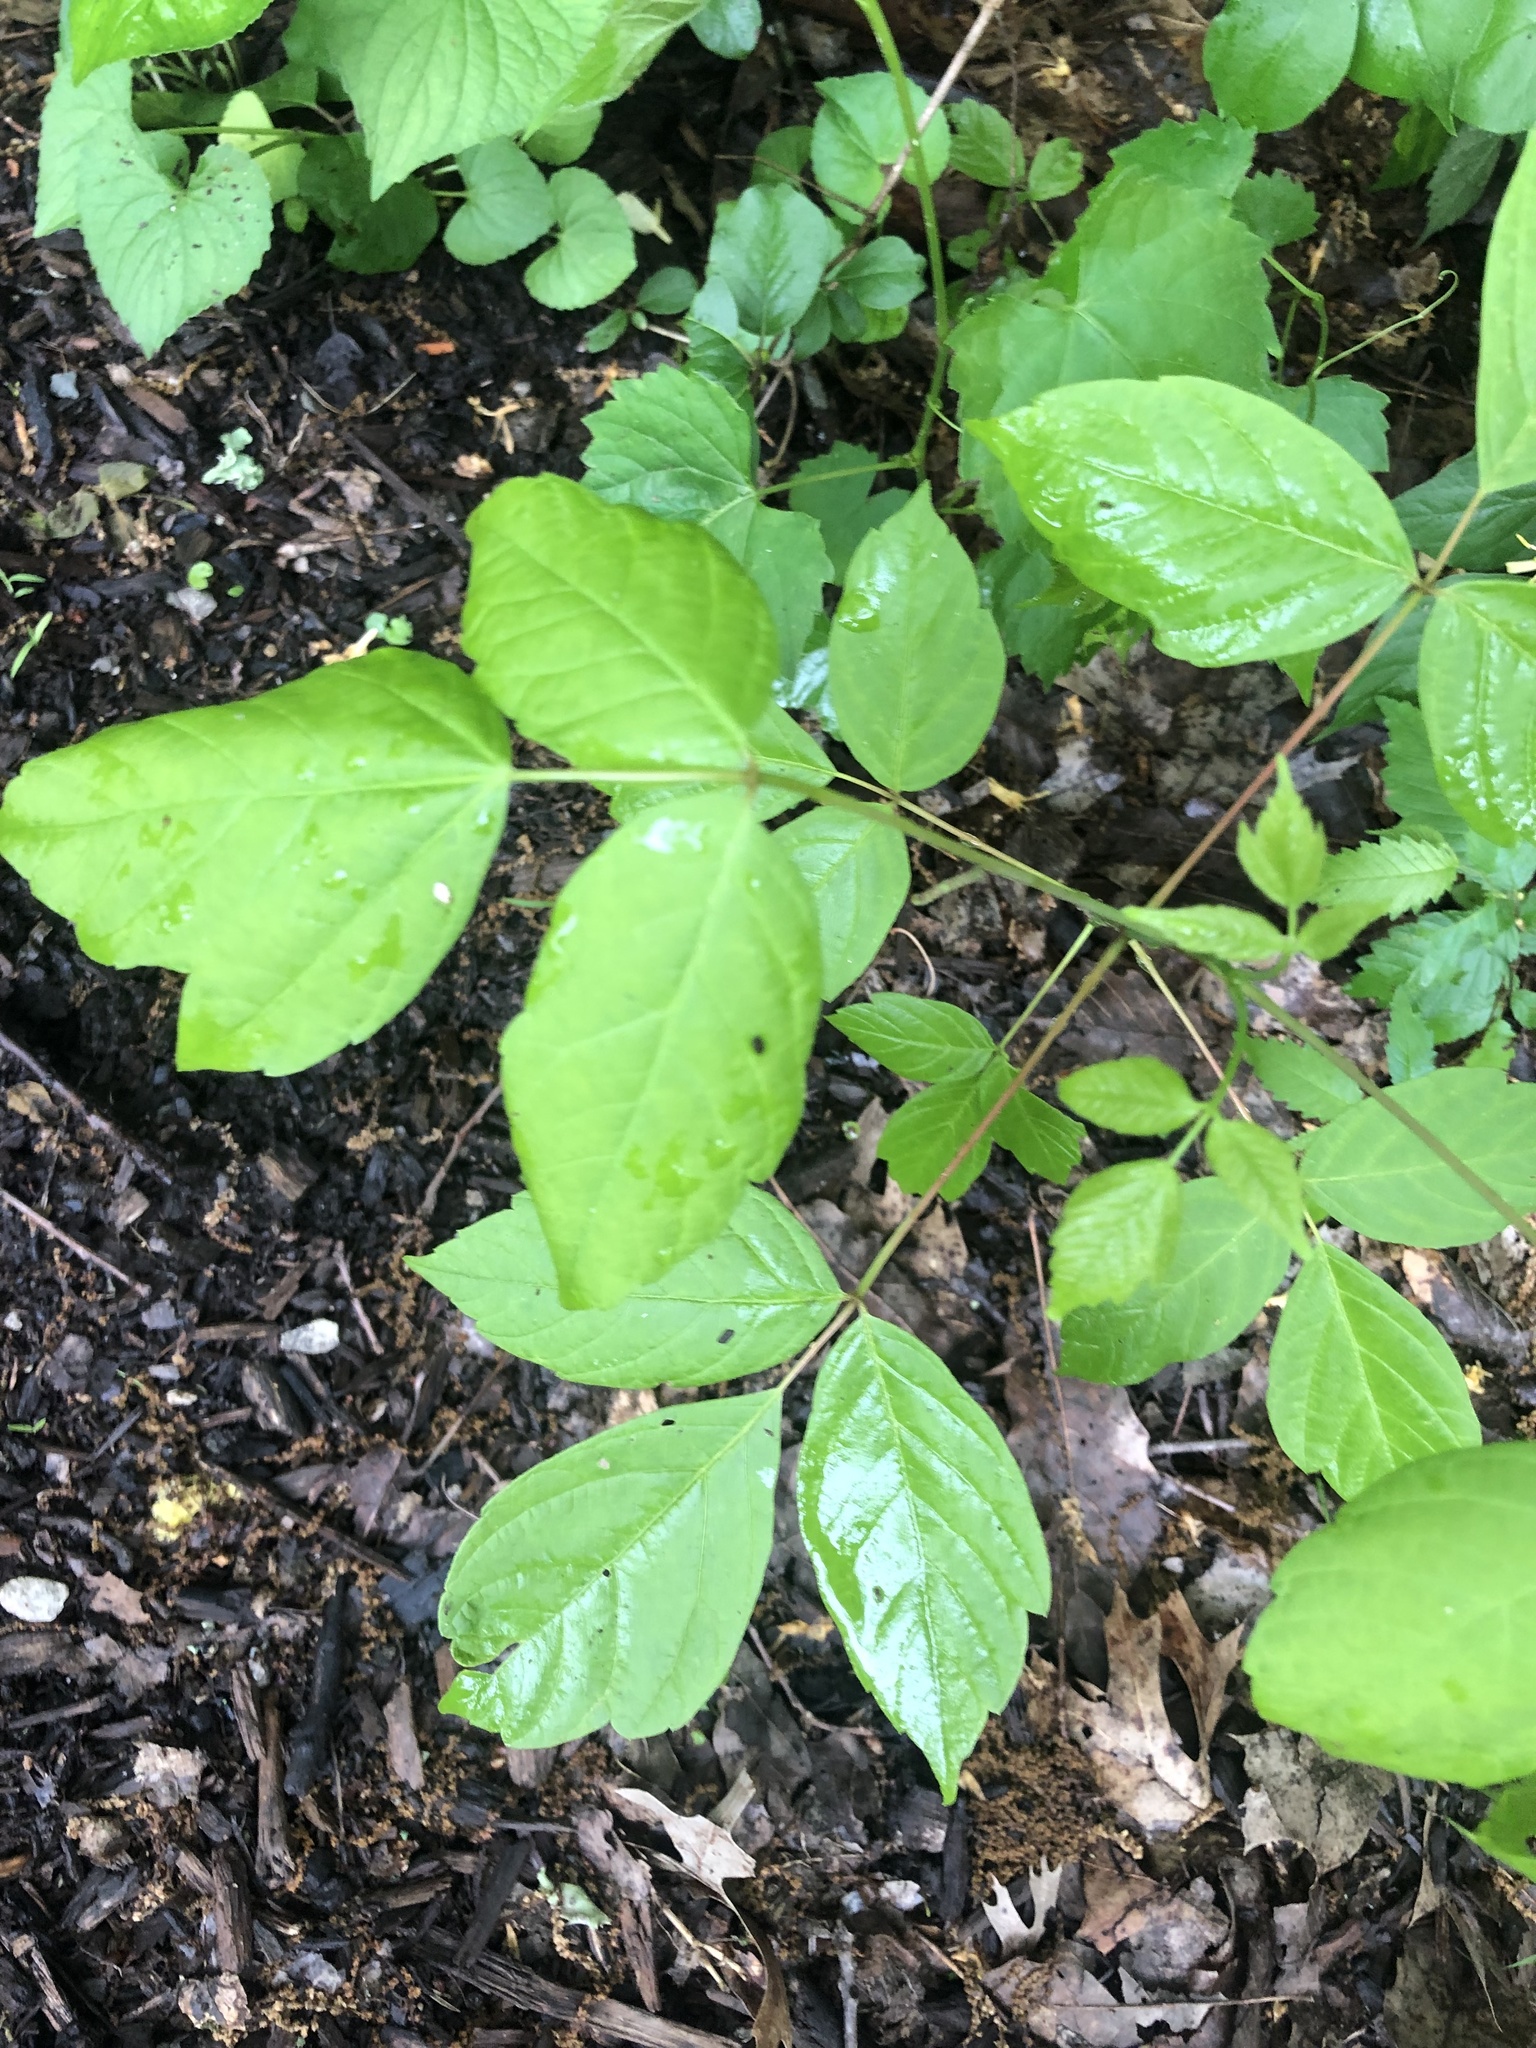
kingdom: Plantae
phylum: Tracheophyta
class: Magnoliopsida
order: Sapindales
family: Sapindaceae
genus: Acer
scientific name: Acer negundo
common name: Ashleaf maple
